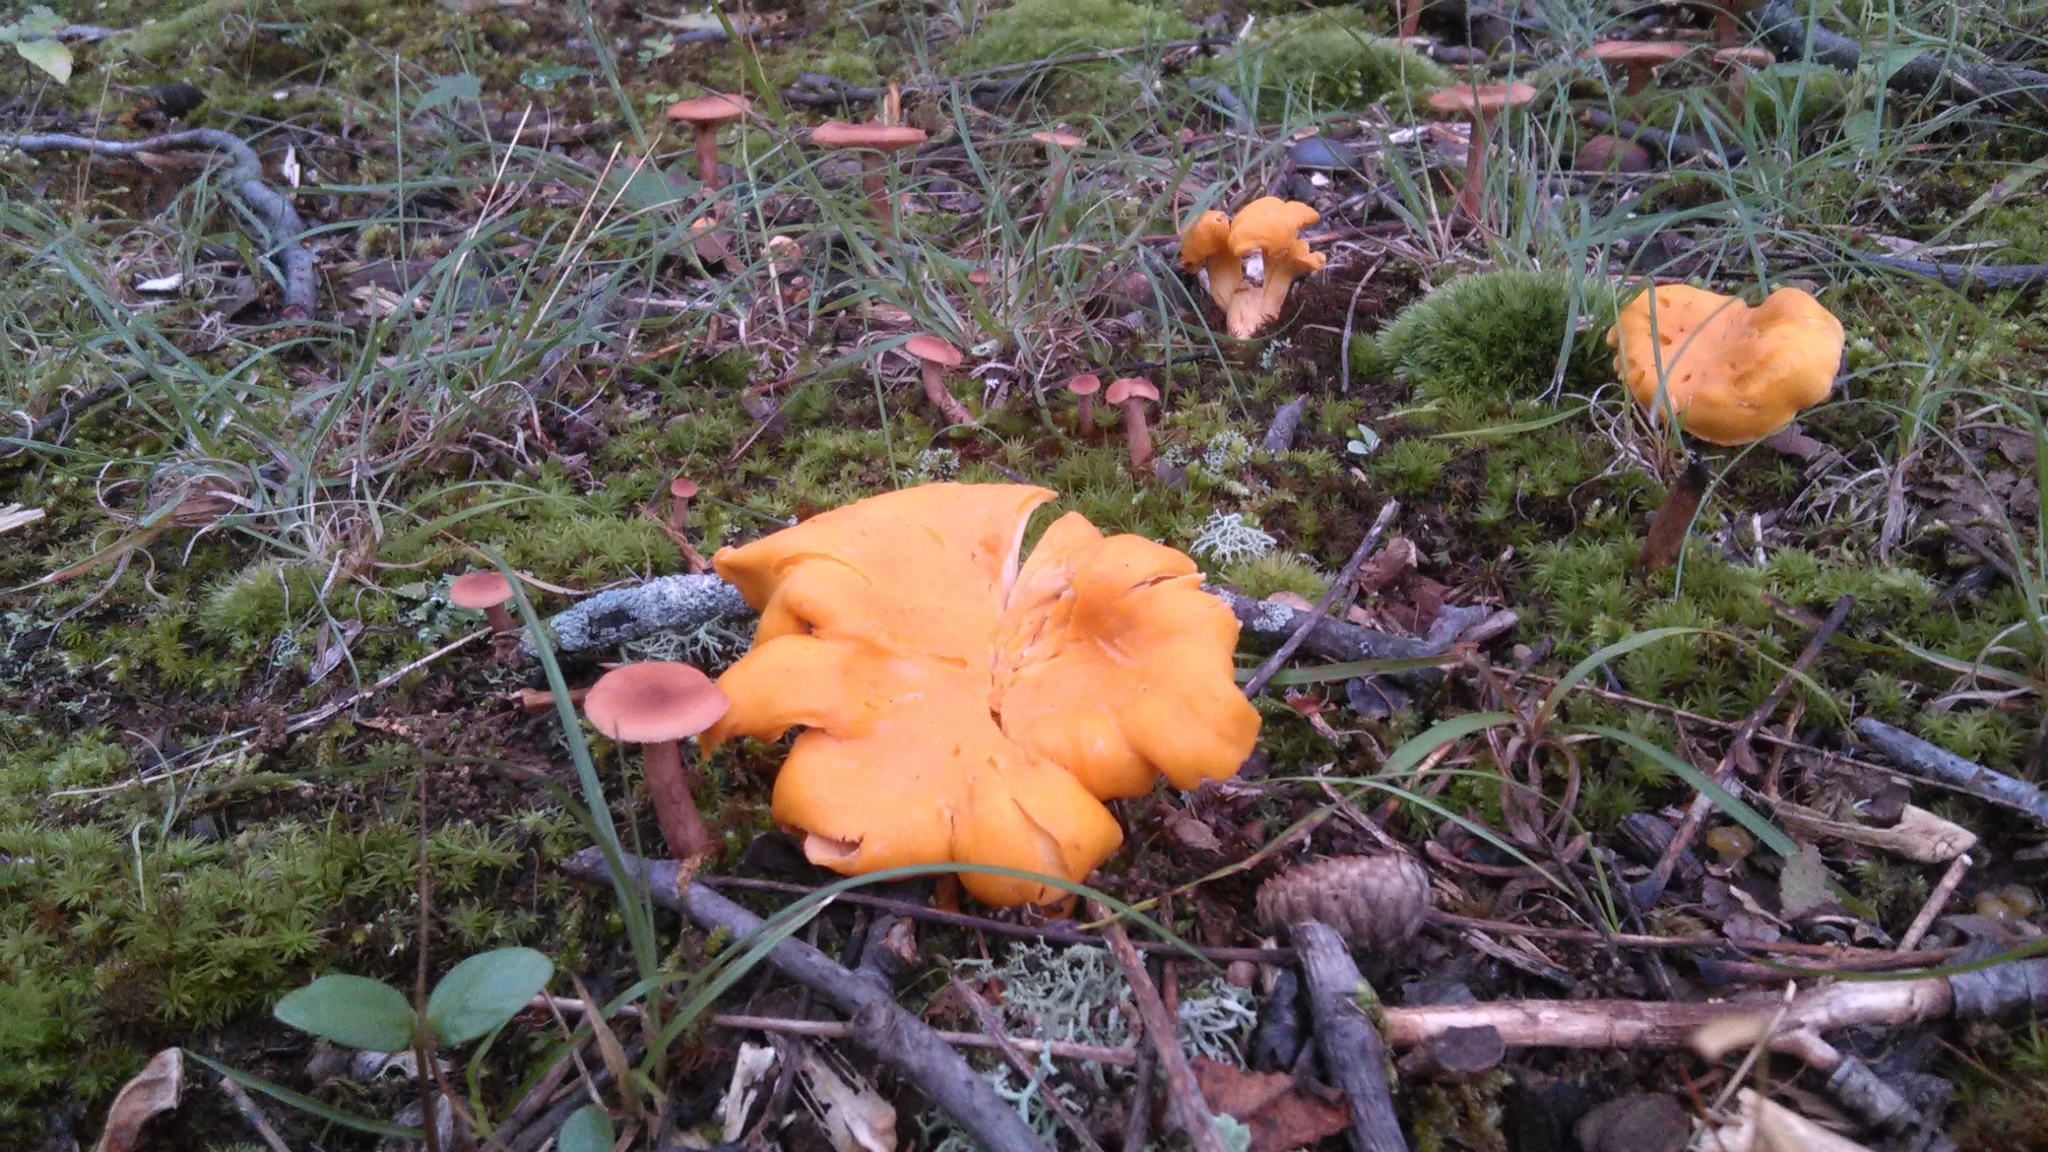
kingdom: Fungi
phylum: Basidiomycota
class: Agaricomycetes
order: Cantharellales
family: Hydnaceae
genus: Cantharellus
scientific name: Cantharellus flavolateritius
